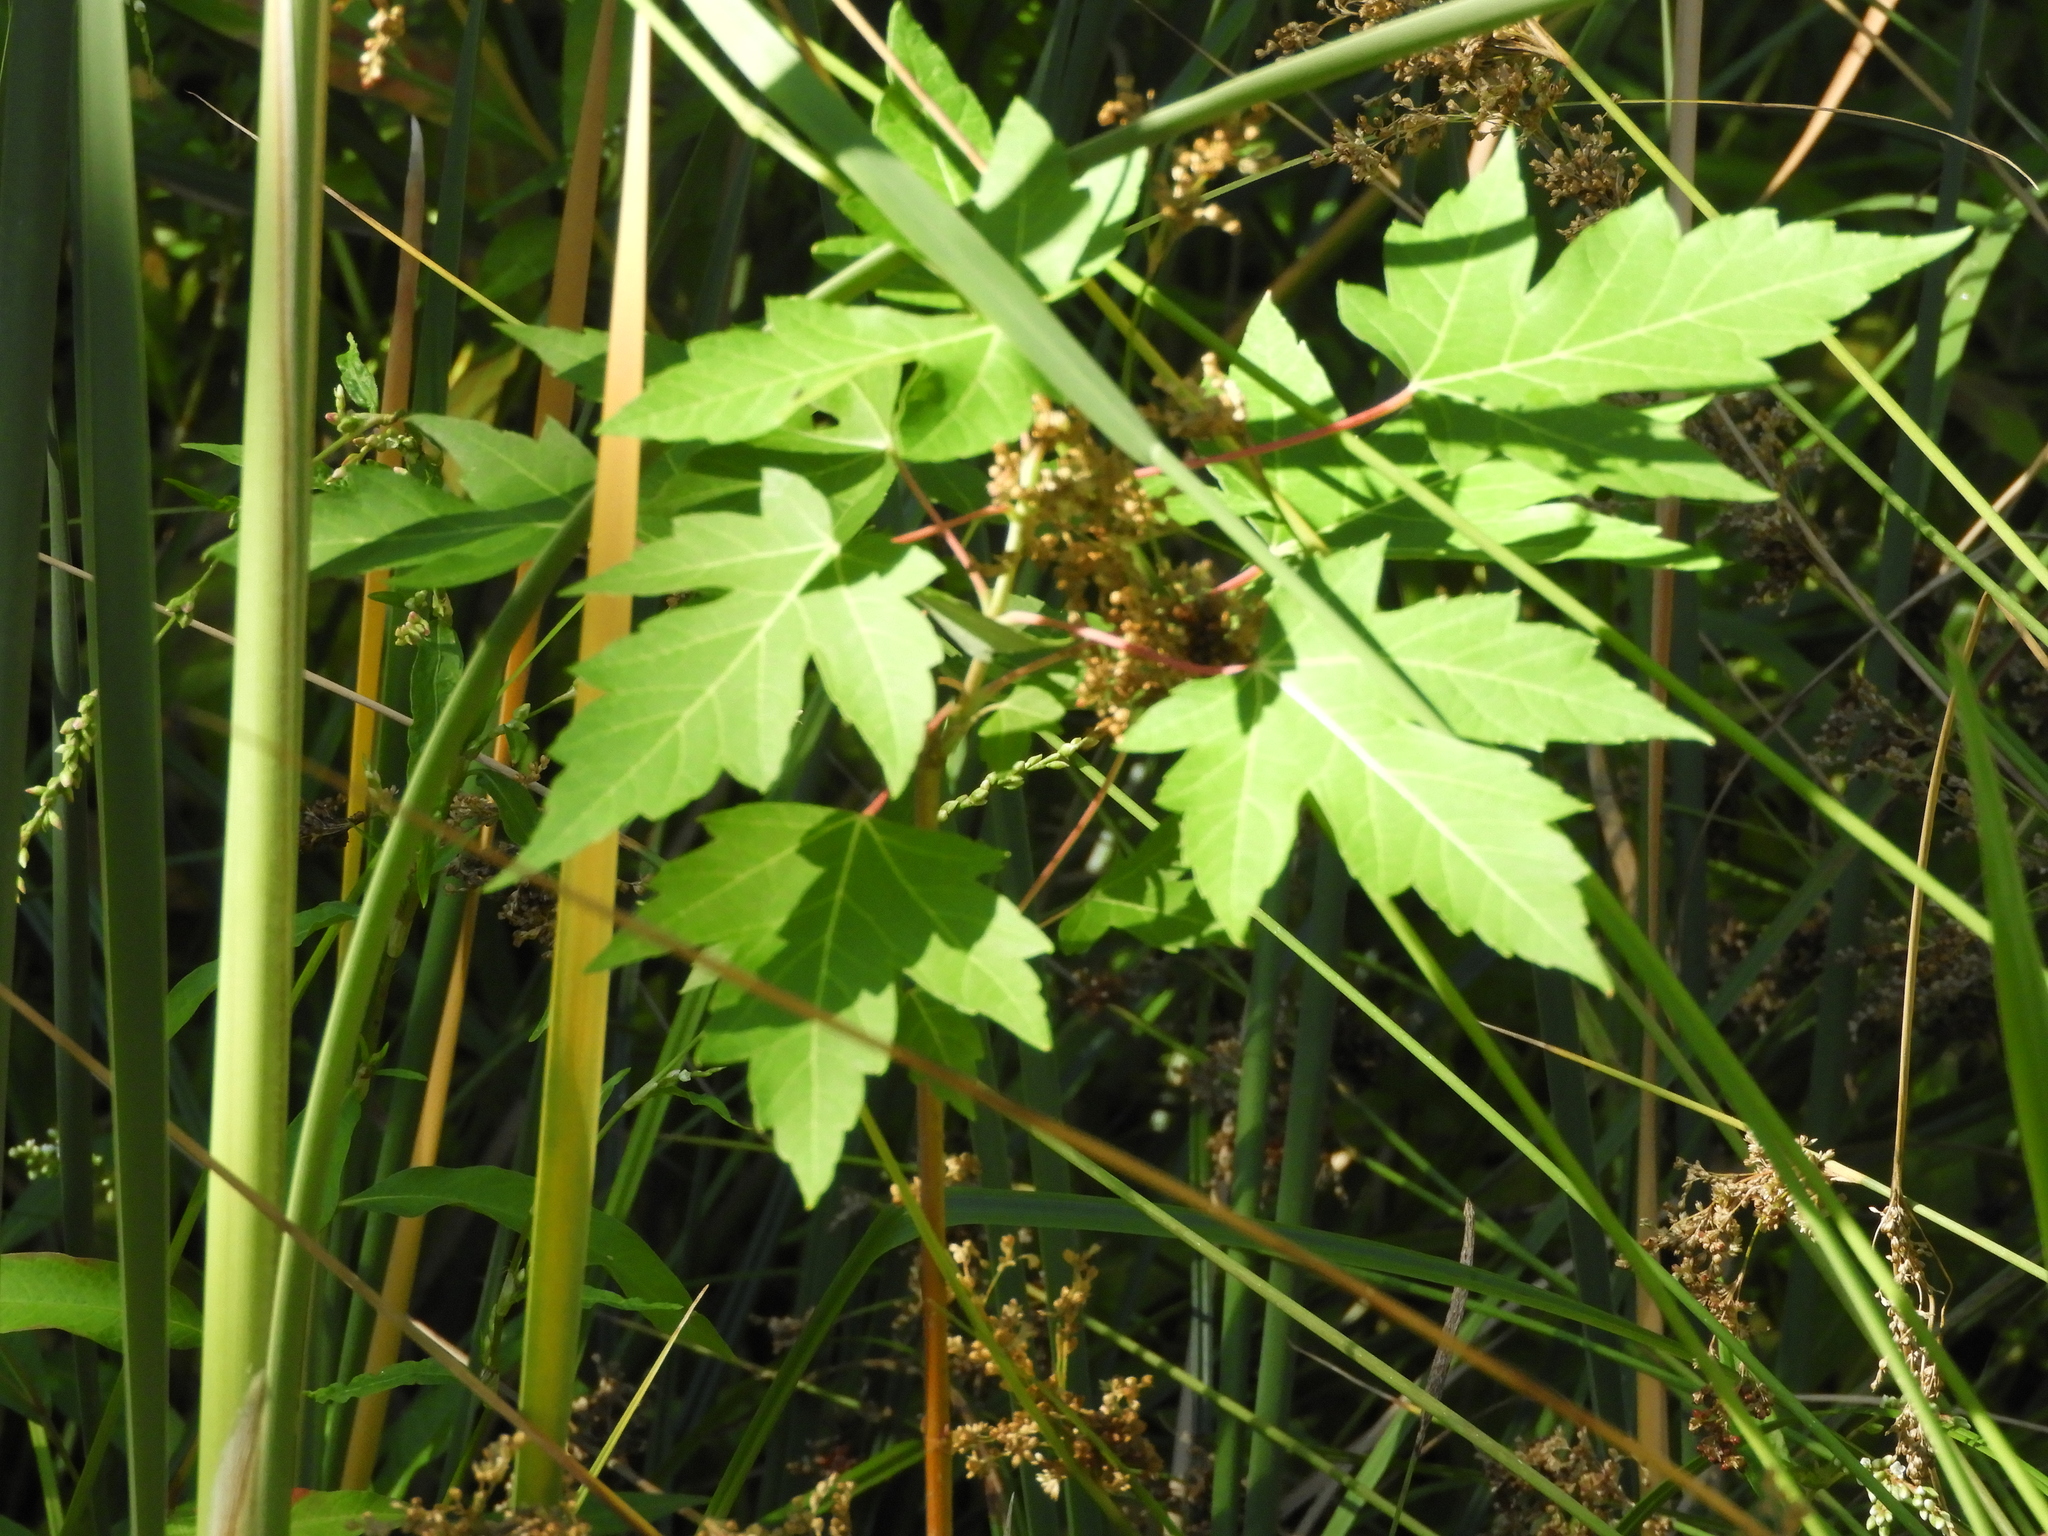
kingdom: Plantae
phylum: Tracheophyta
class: Magnoliopsida
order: Sapindales
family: Sapindaceae
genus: Acer
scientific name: Acer saccharinum
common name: Silver maple
